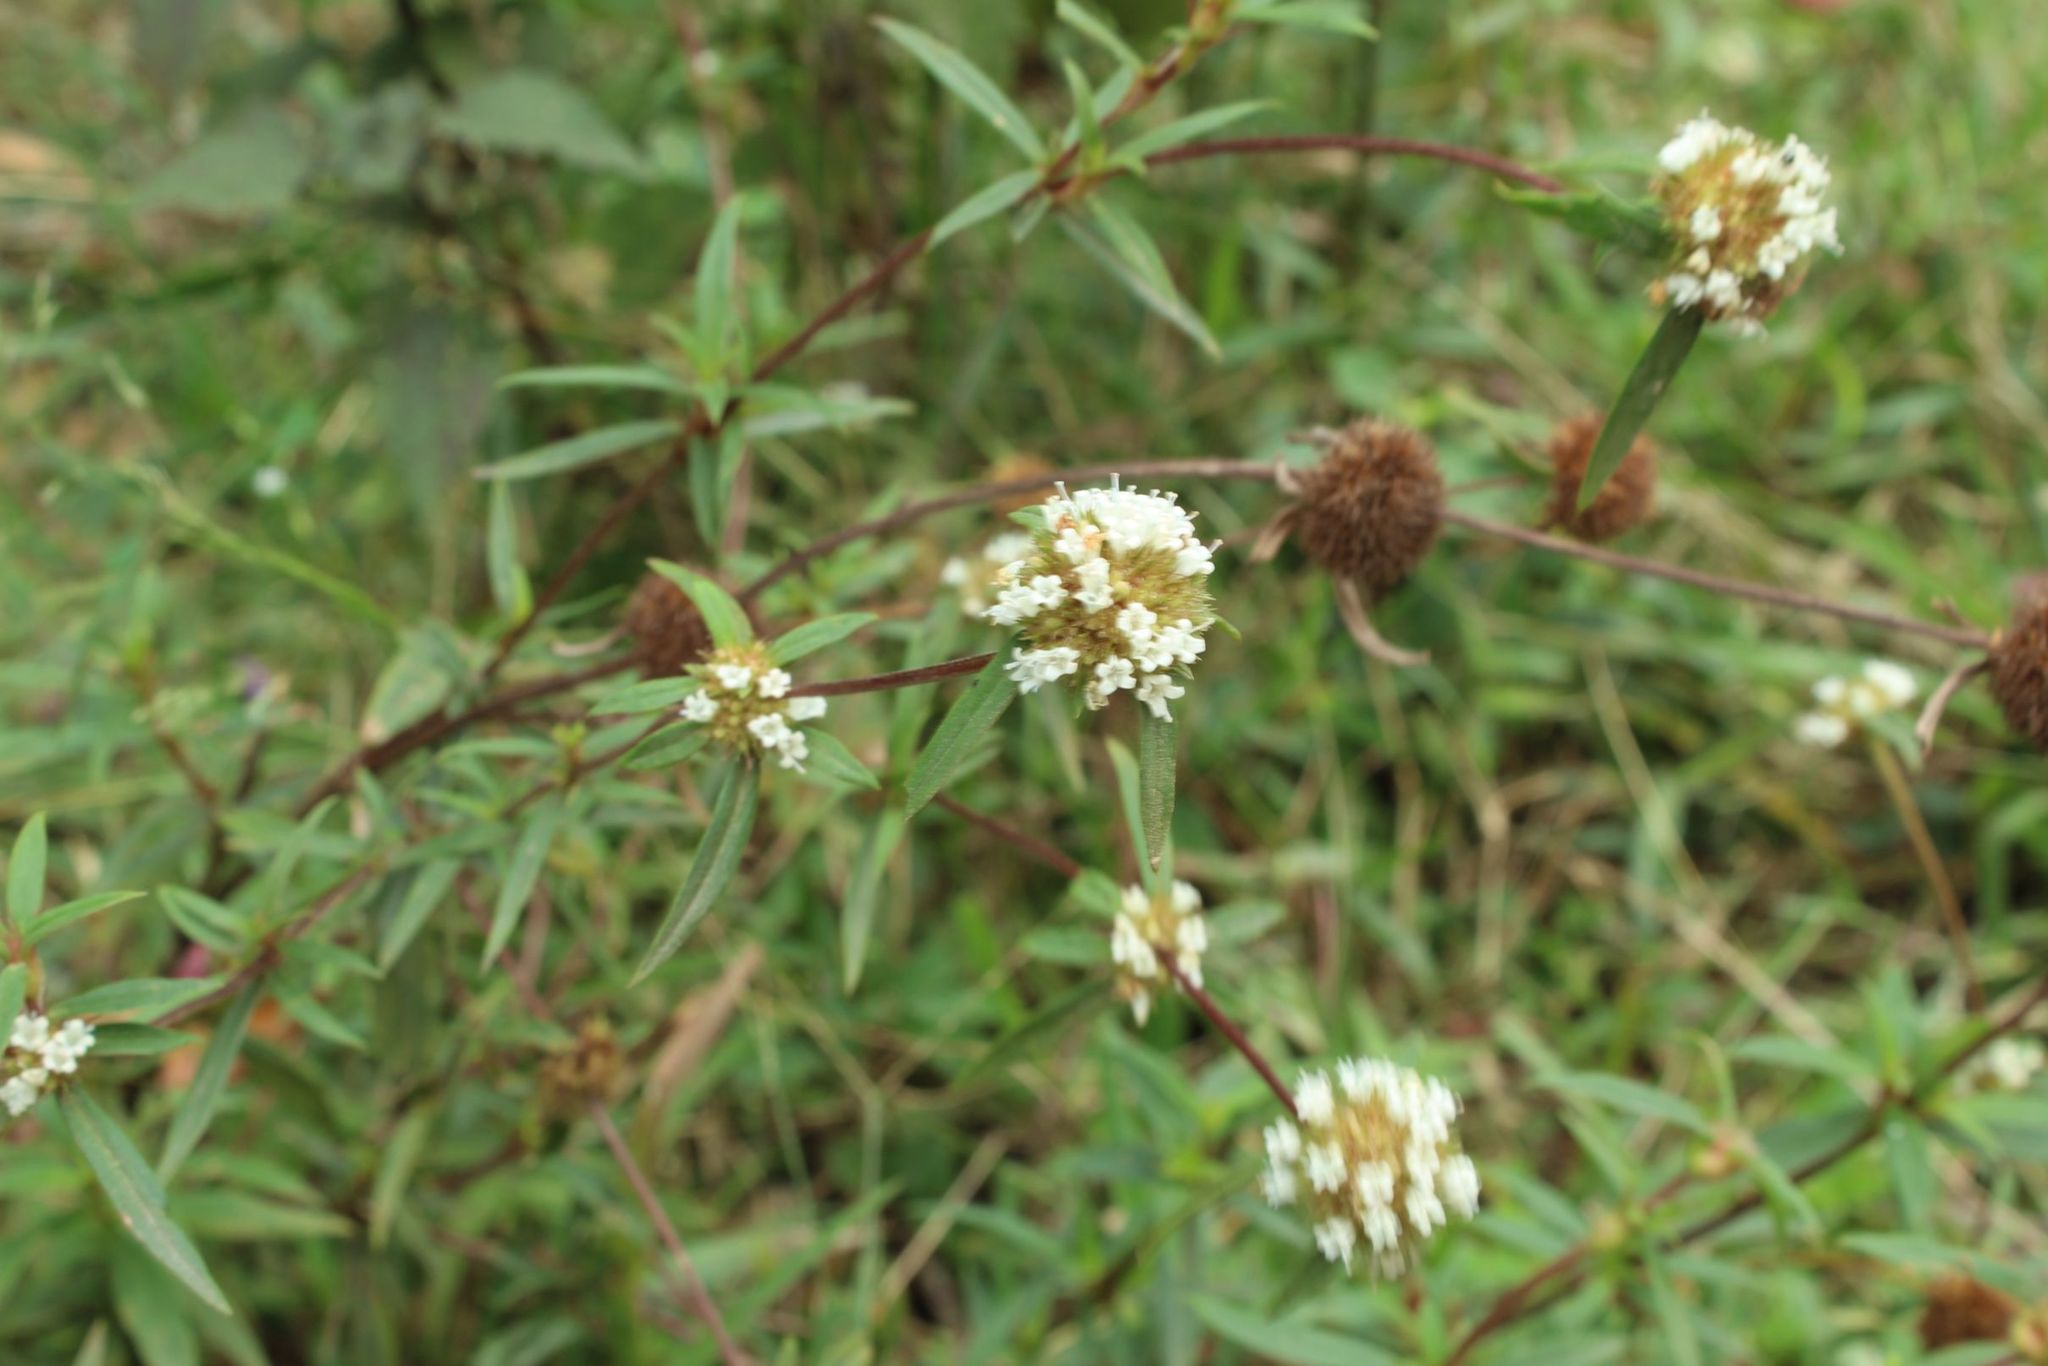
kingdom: Plantae
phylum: Tracheophyta
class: Magnoliopsida
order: Gentianales
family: Rubiaceae
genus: Spermacoce
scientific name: Spermacoce suaveolens
